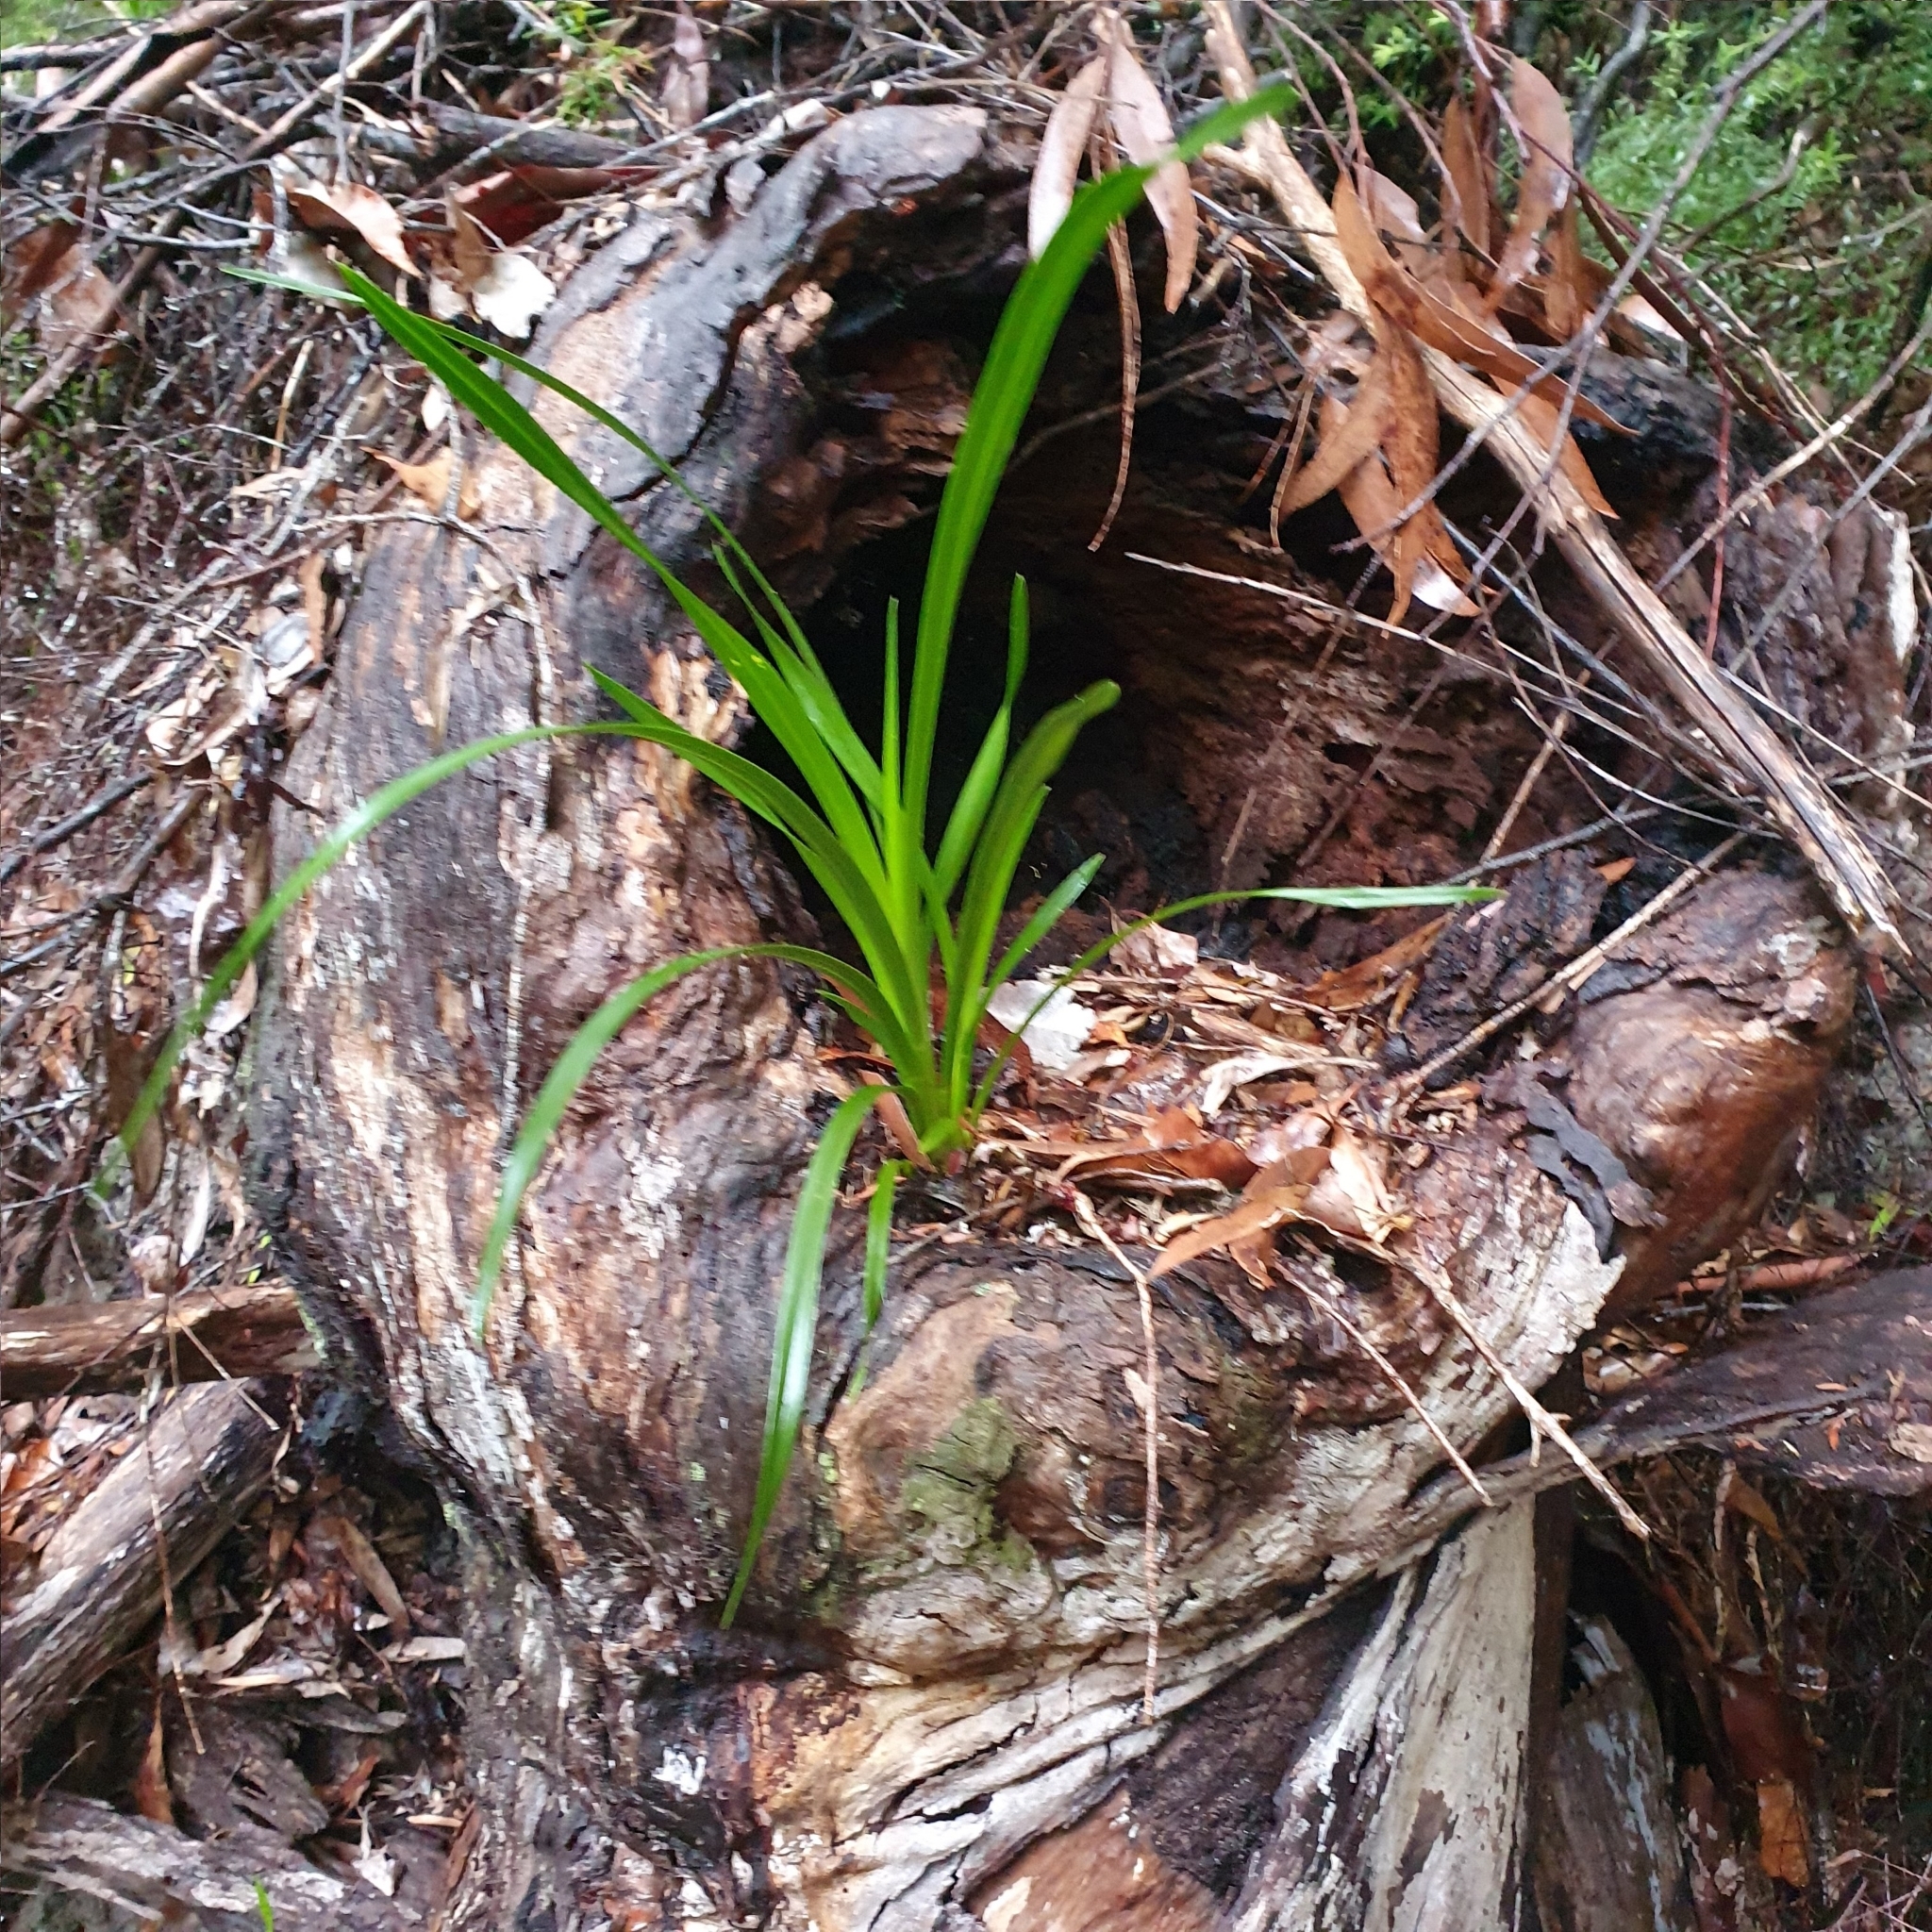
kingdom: Plantae
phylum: Tracheophyta
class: Liliopsida
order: Asparagales
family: Orchidaceae
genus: Cymbidium
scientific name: Cymbidium suave
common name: Snake orchid
